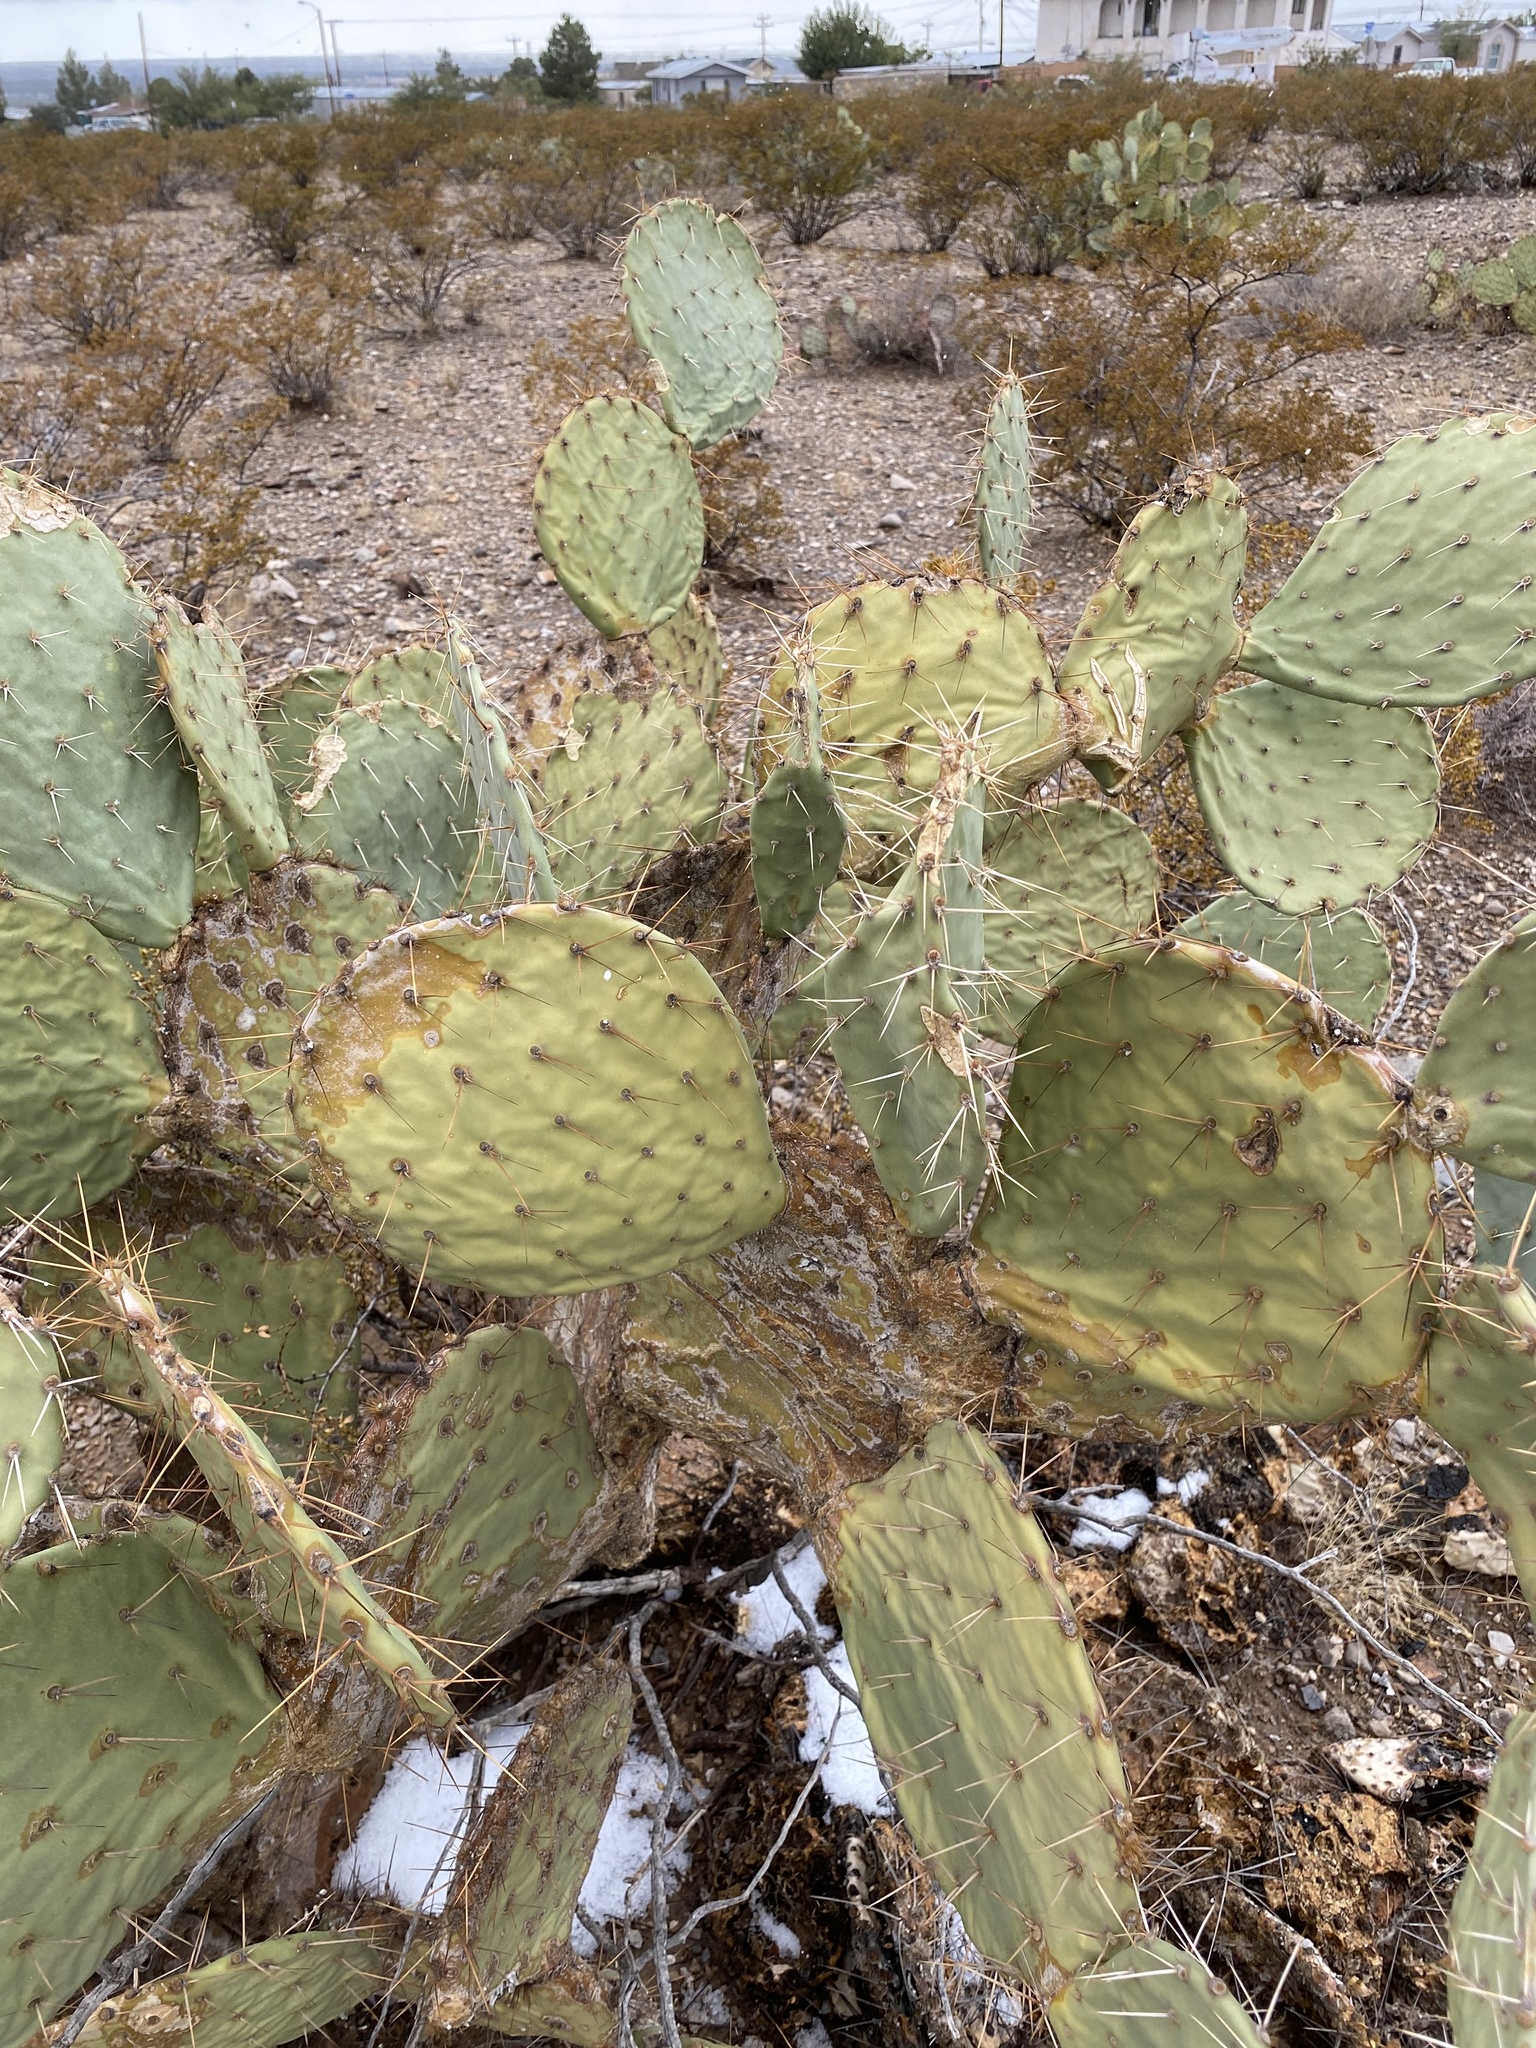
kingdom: Plantae
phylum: Tracheophyta
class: Magnoliopsida
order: Caryophyllales
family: Cactaceae
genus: Opuntia
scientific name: Opuntia engelmannii
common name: Cactus-apple
